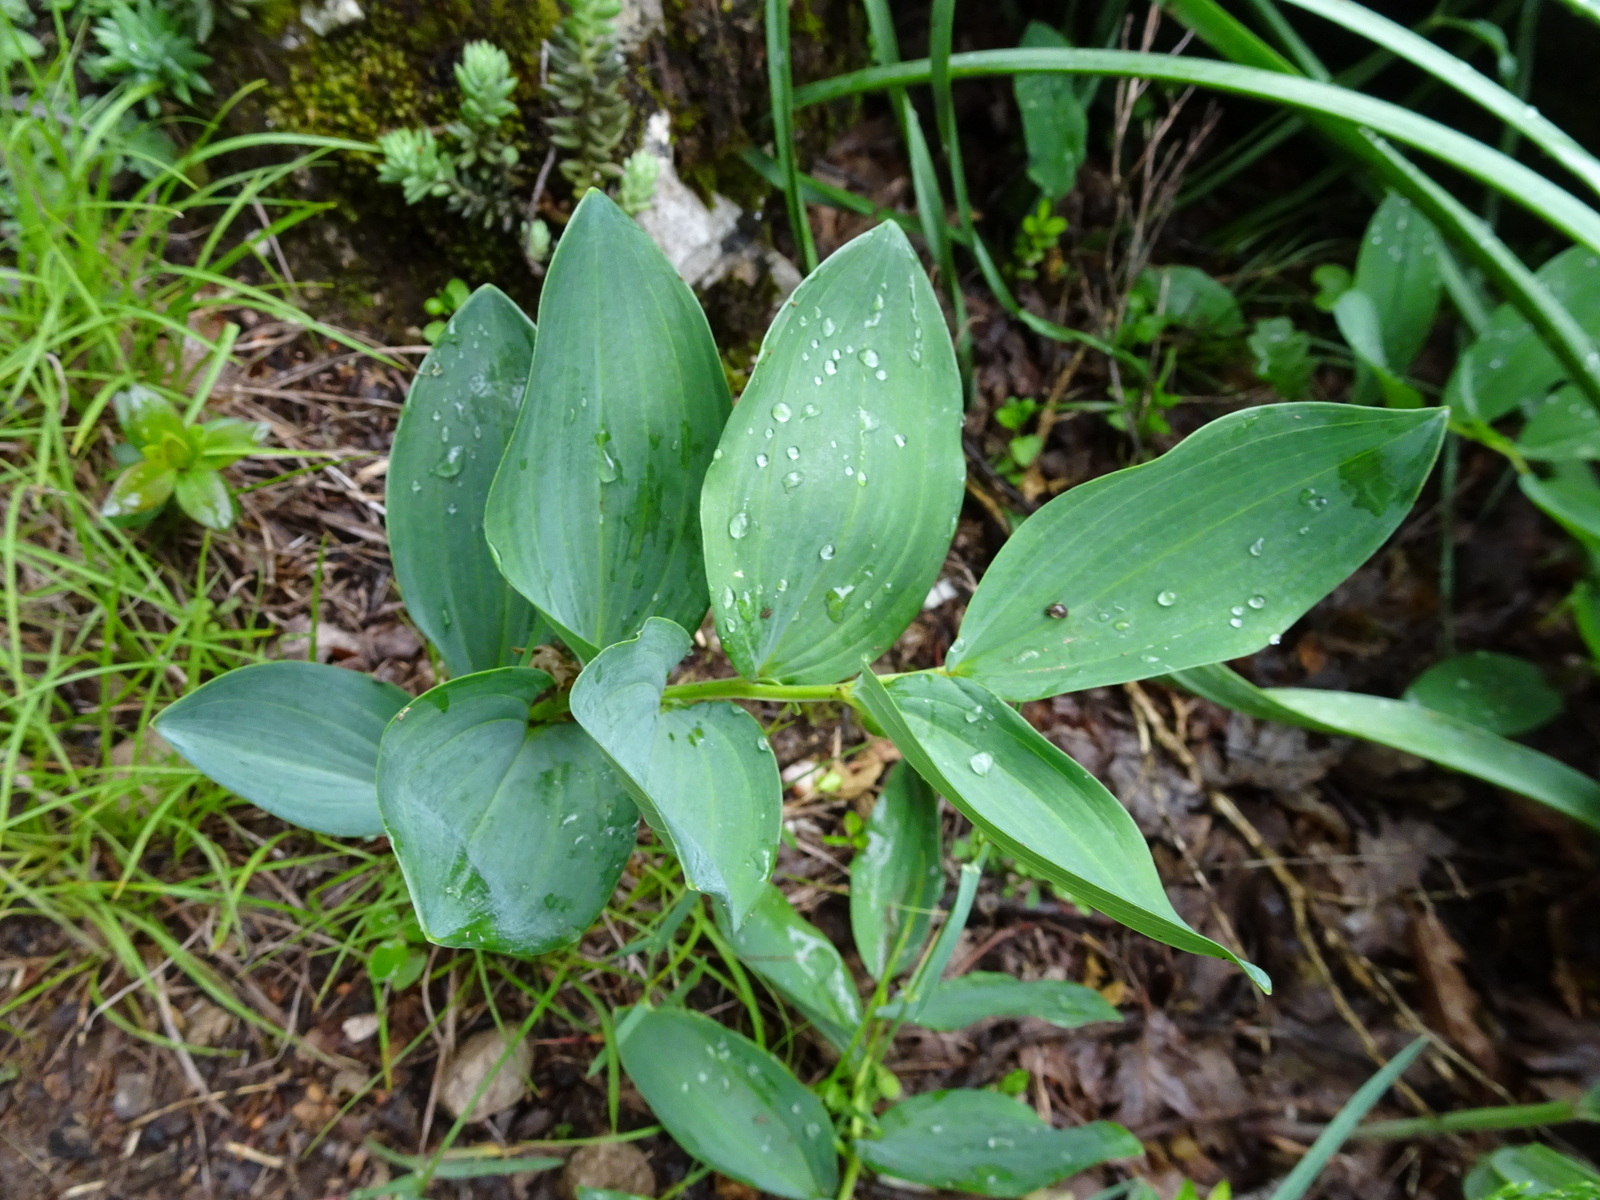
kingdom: Plantae
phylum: Tracheophyta
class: Liliopsida
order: Asparagales
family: Asparagaceae
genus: Polygonatum
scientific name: Polygonatum odoratum
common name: Angular solomon's-seal
